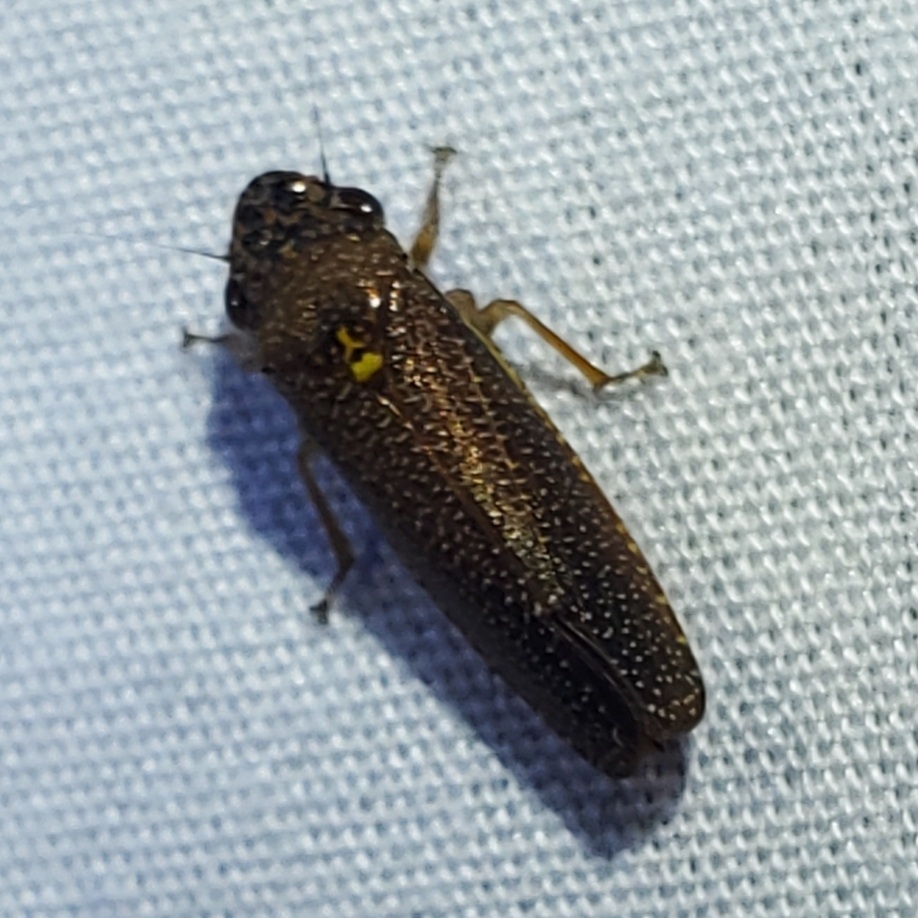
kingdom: Animalia
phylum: Arthropoda
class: Insecta
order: Hemiptera
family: Cicadellidae
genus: Paraulacizes
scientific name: Paraulacizes irrorata
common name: Speckled sharpshooter
